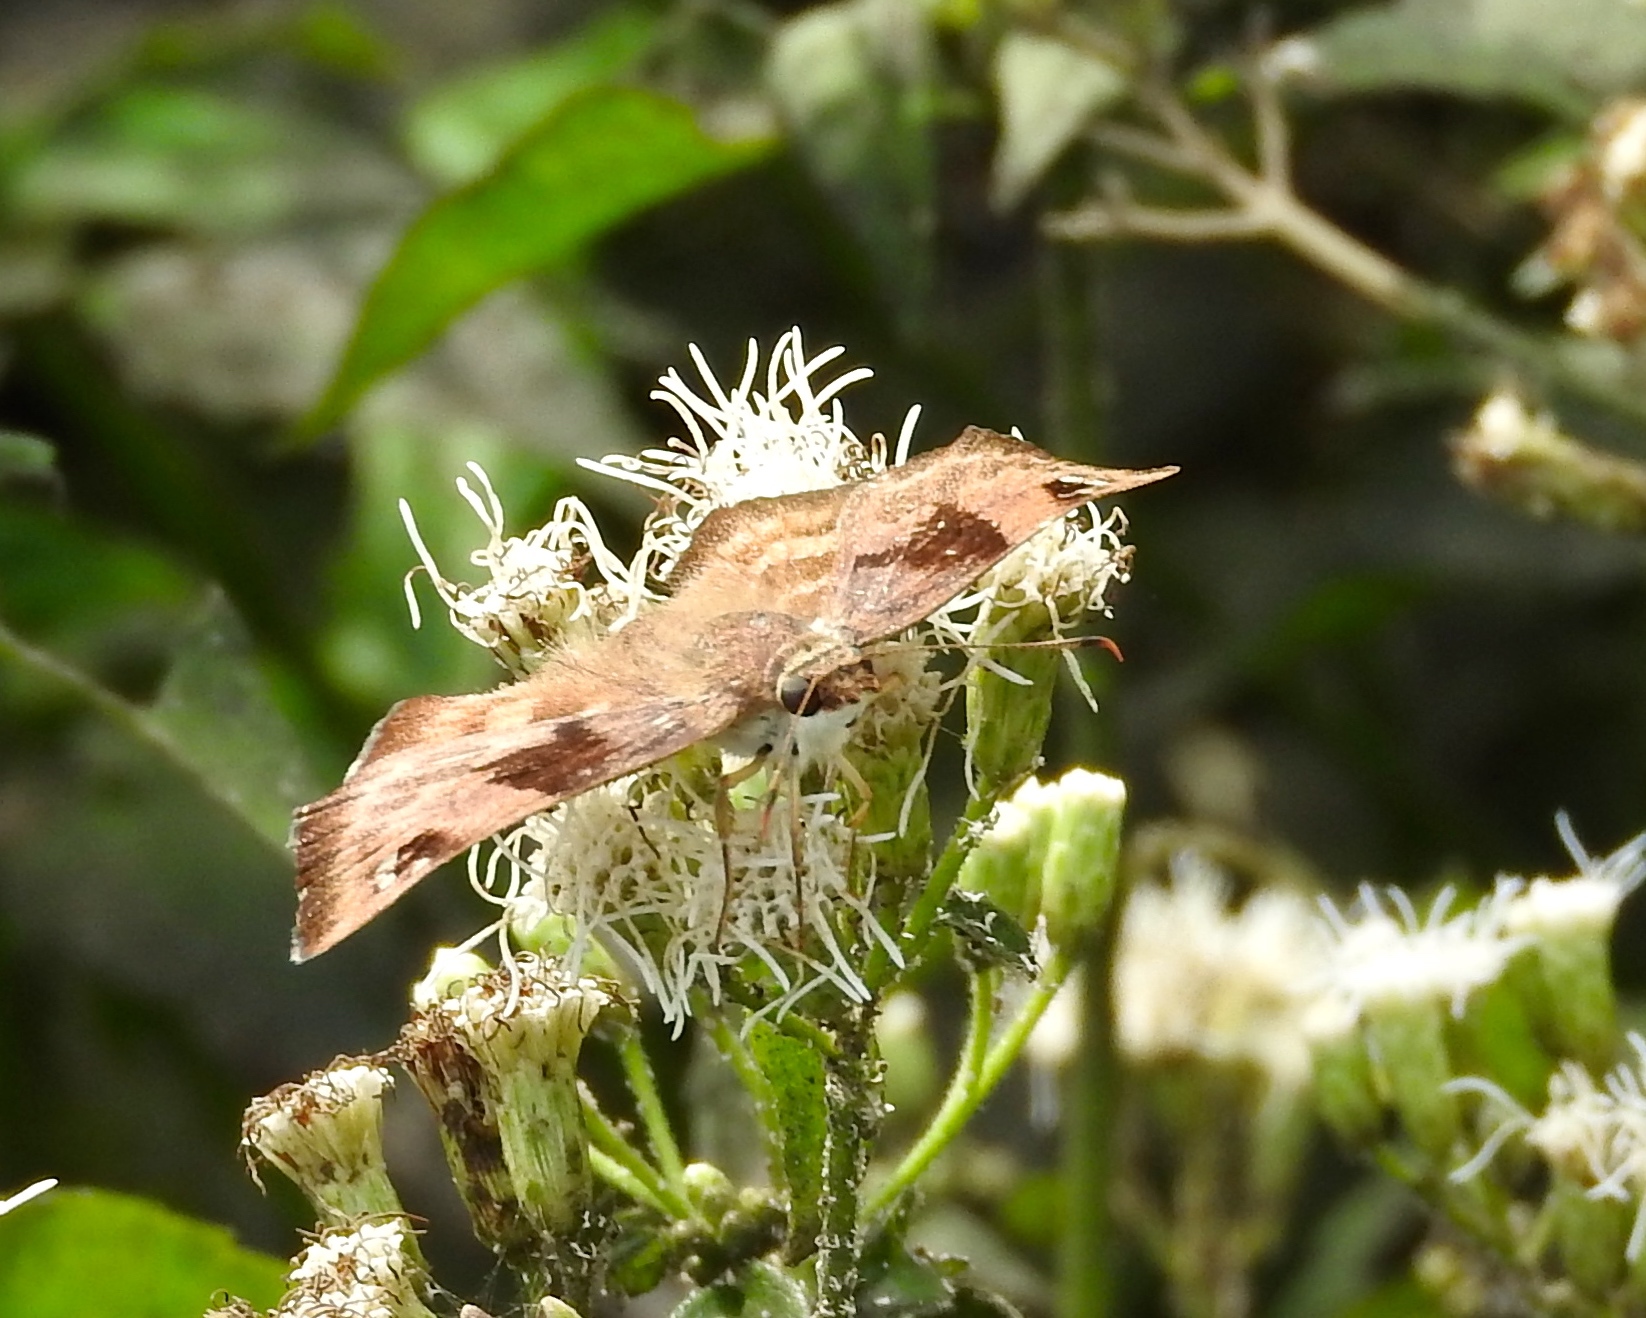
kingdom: Animalia
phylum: Arthropoda
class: Insecta
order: Lepidoptera
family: Hesperiidae
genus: Arteurotia
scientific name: Arteurotia tractipennis
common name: Starred skipper
